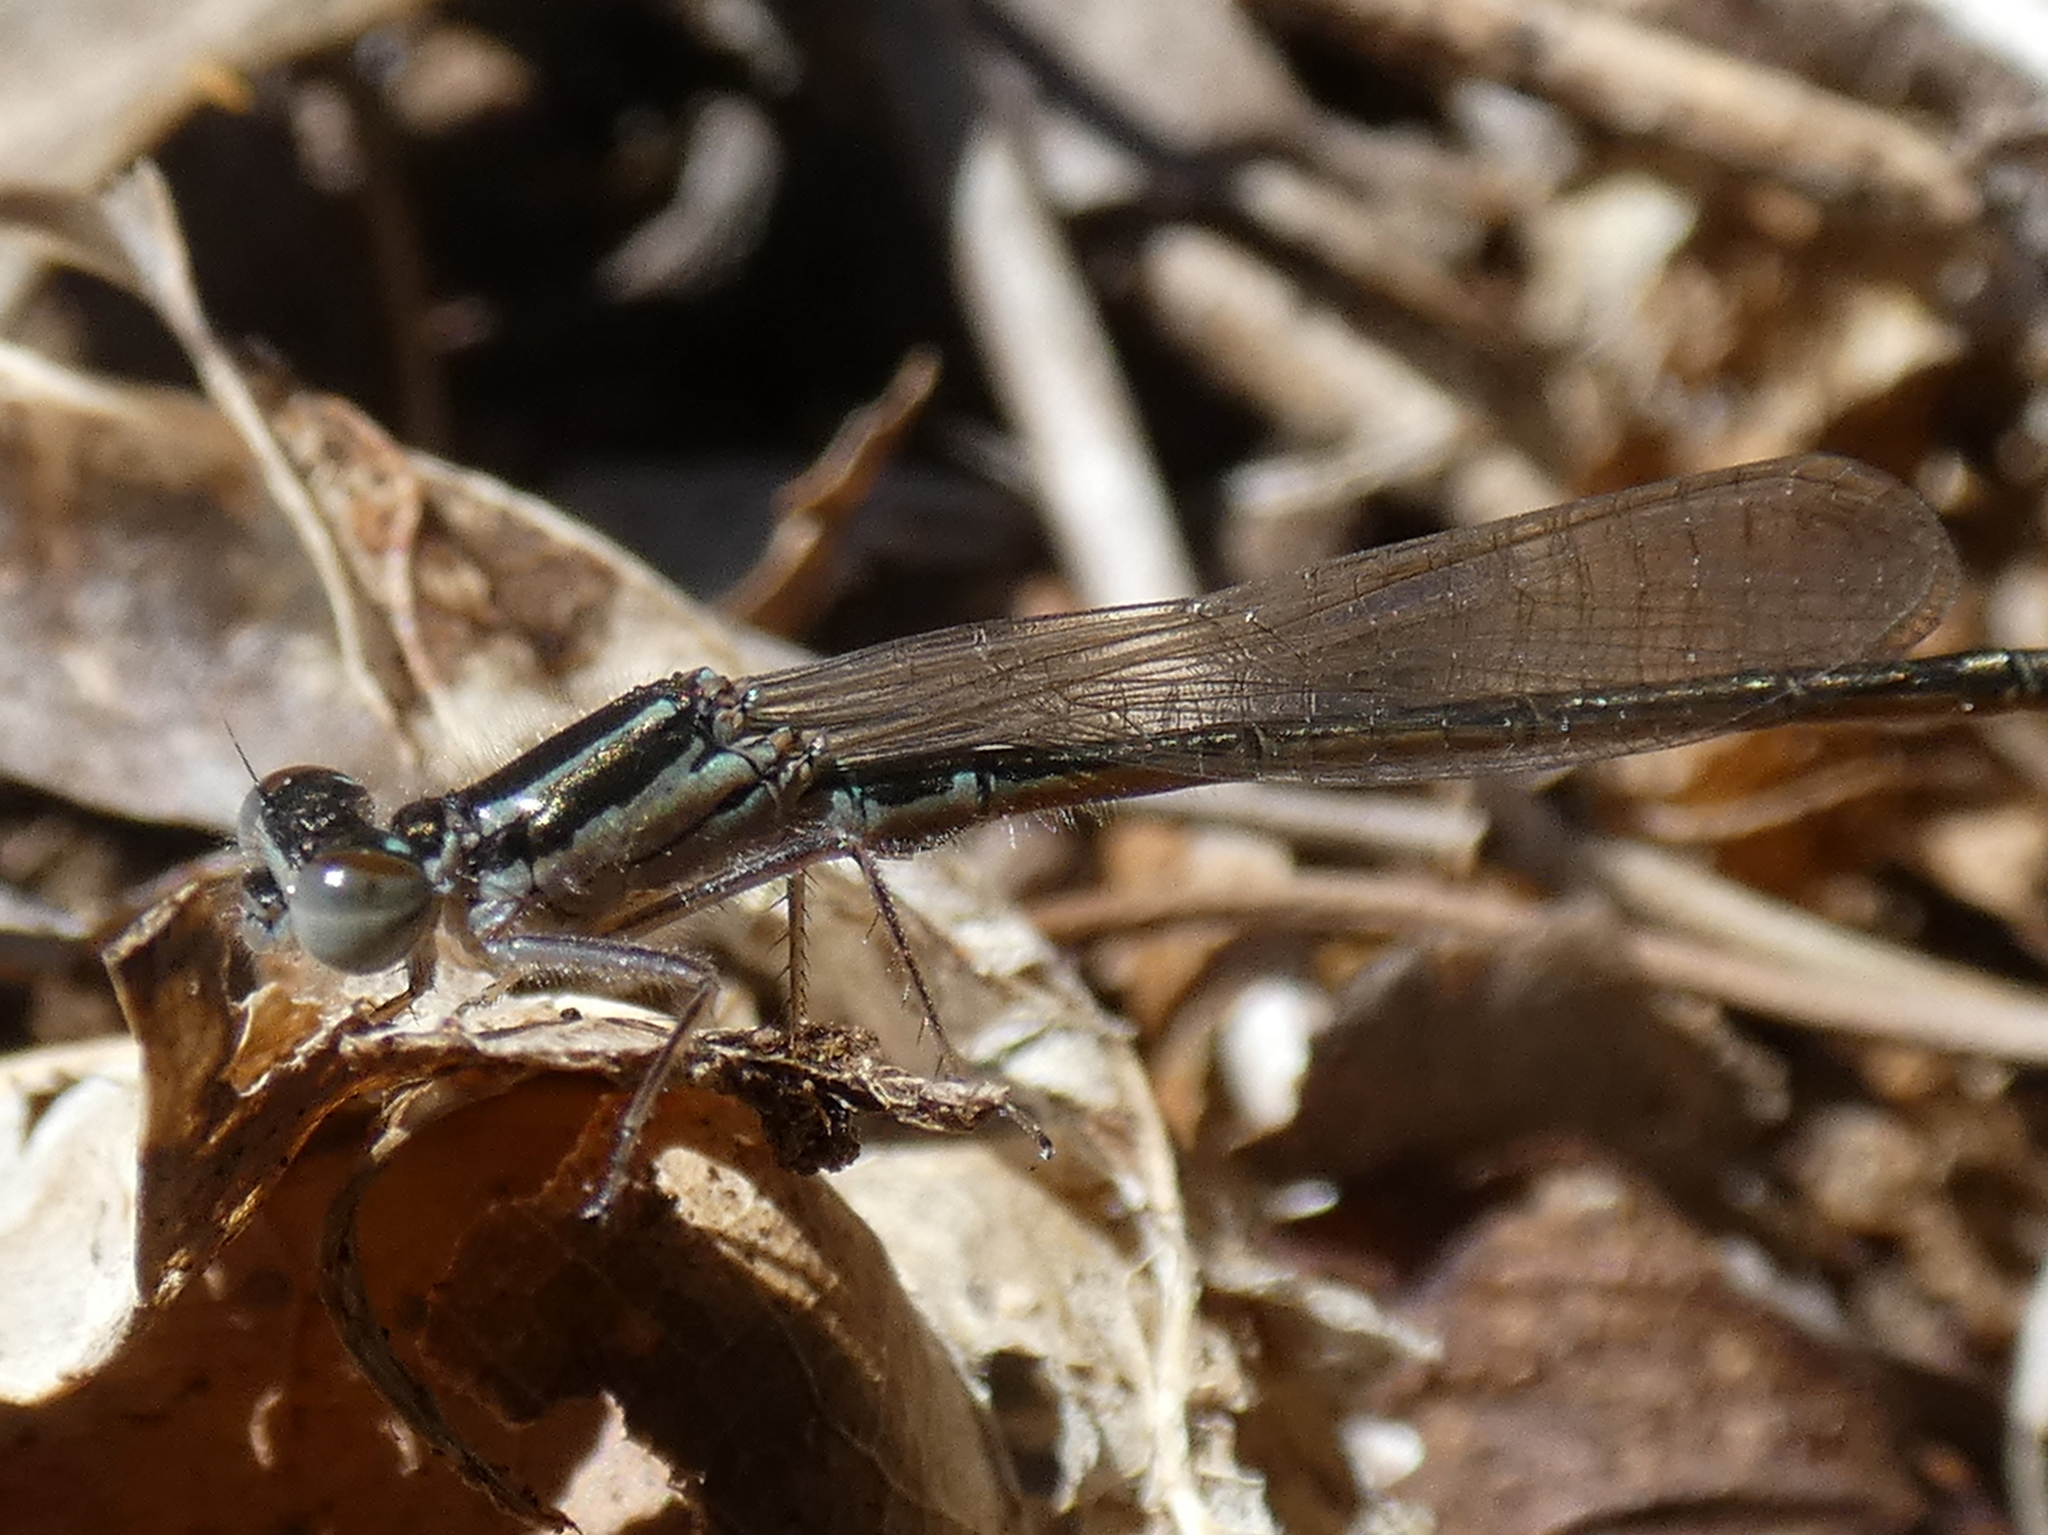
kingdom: Animalia
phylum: Arthropoda
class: Insecta
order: Odonata
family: Coenagrionidae
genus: Ischnura
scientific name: Ischnura verticalis
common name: Eastern forktail
